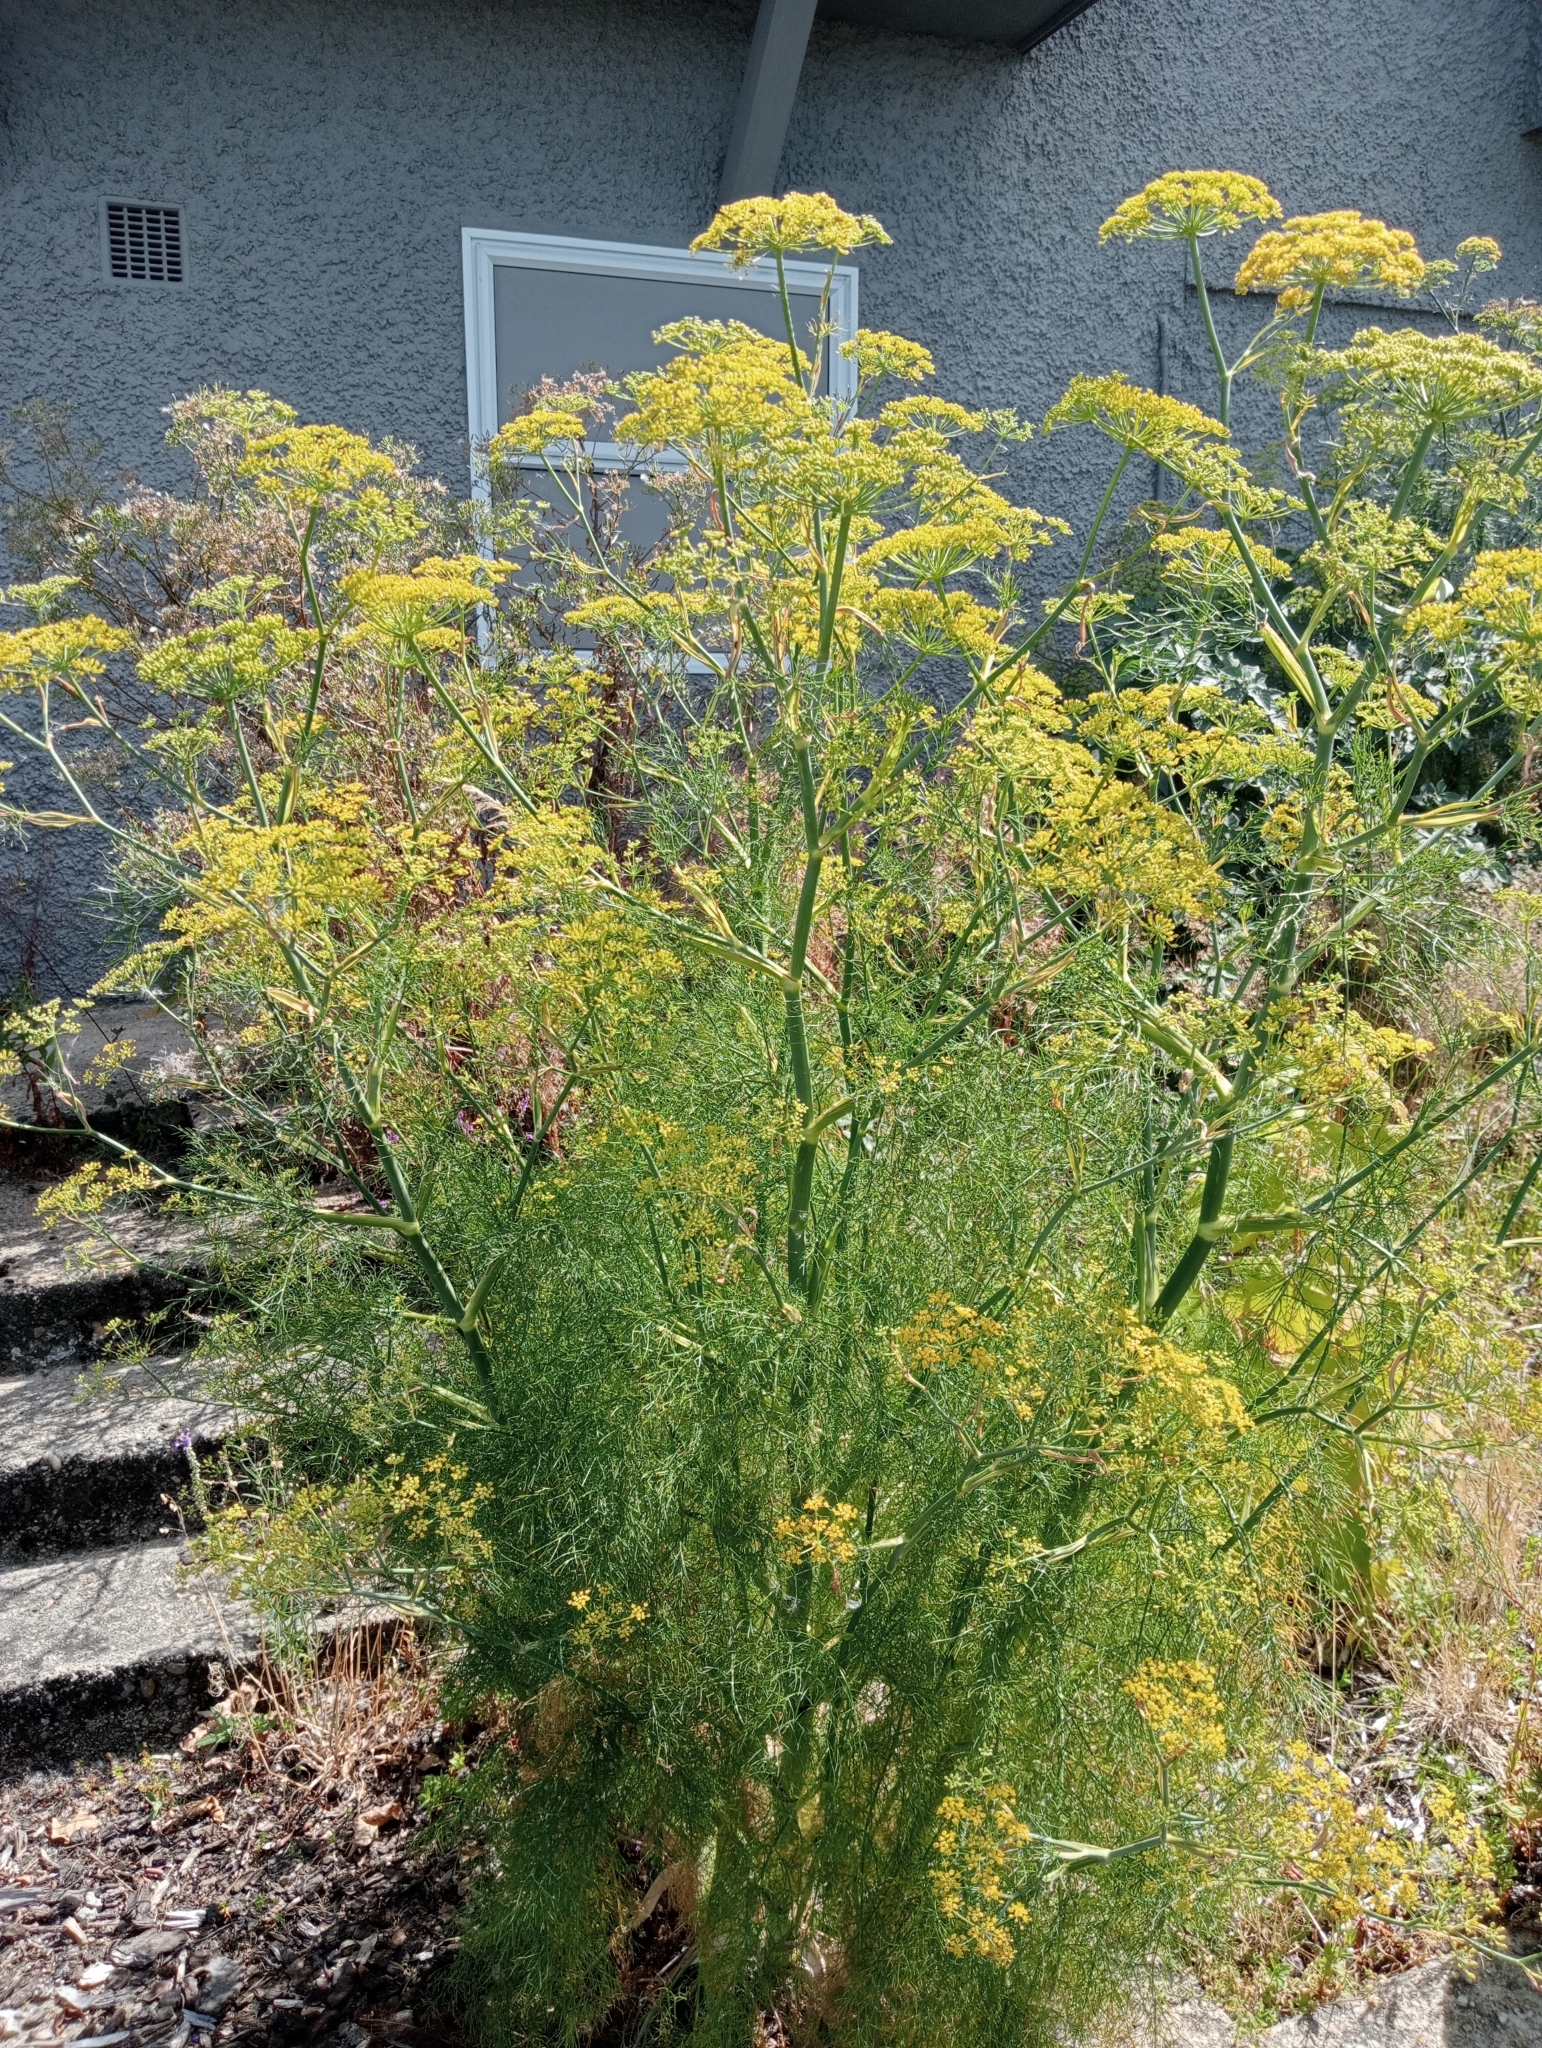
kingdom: Plantae
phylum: Tracheophyta
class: Magnoliopsida
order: Apiales
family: Apiaceae
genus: Foeniculum
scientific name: Foeniculum vulgare
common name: Fennel
